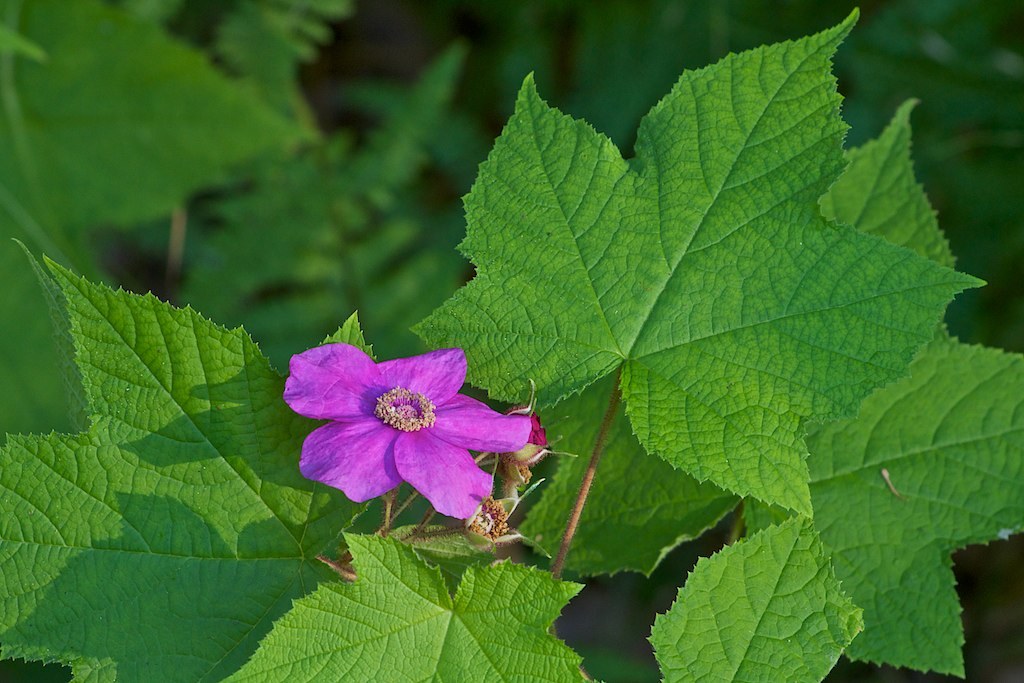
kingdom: Plantae
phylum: Tracheophyta
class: Magnoliopsida
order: Rosales
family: Rosaceae
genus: Rubus
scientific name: Rubus odoratus
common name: Purple-flowered raspberry
